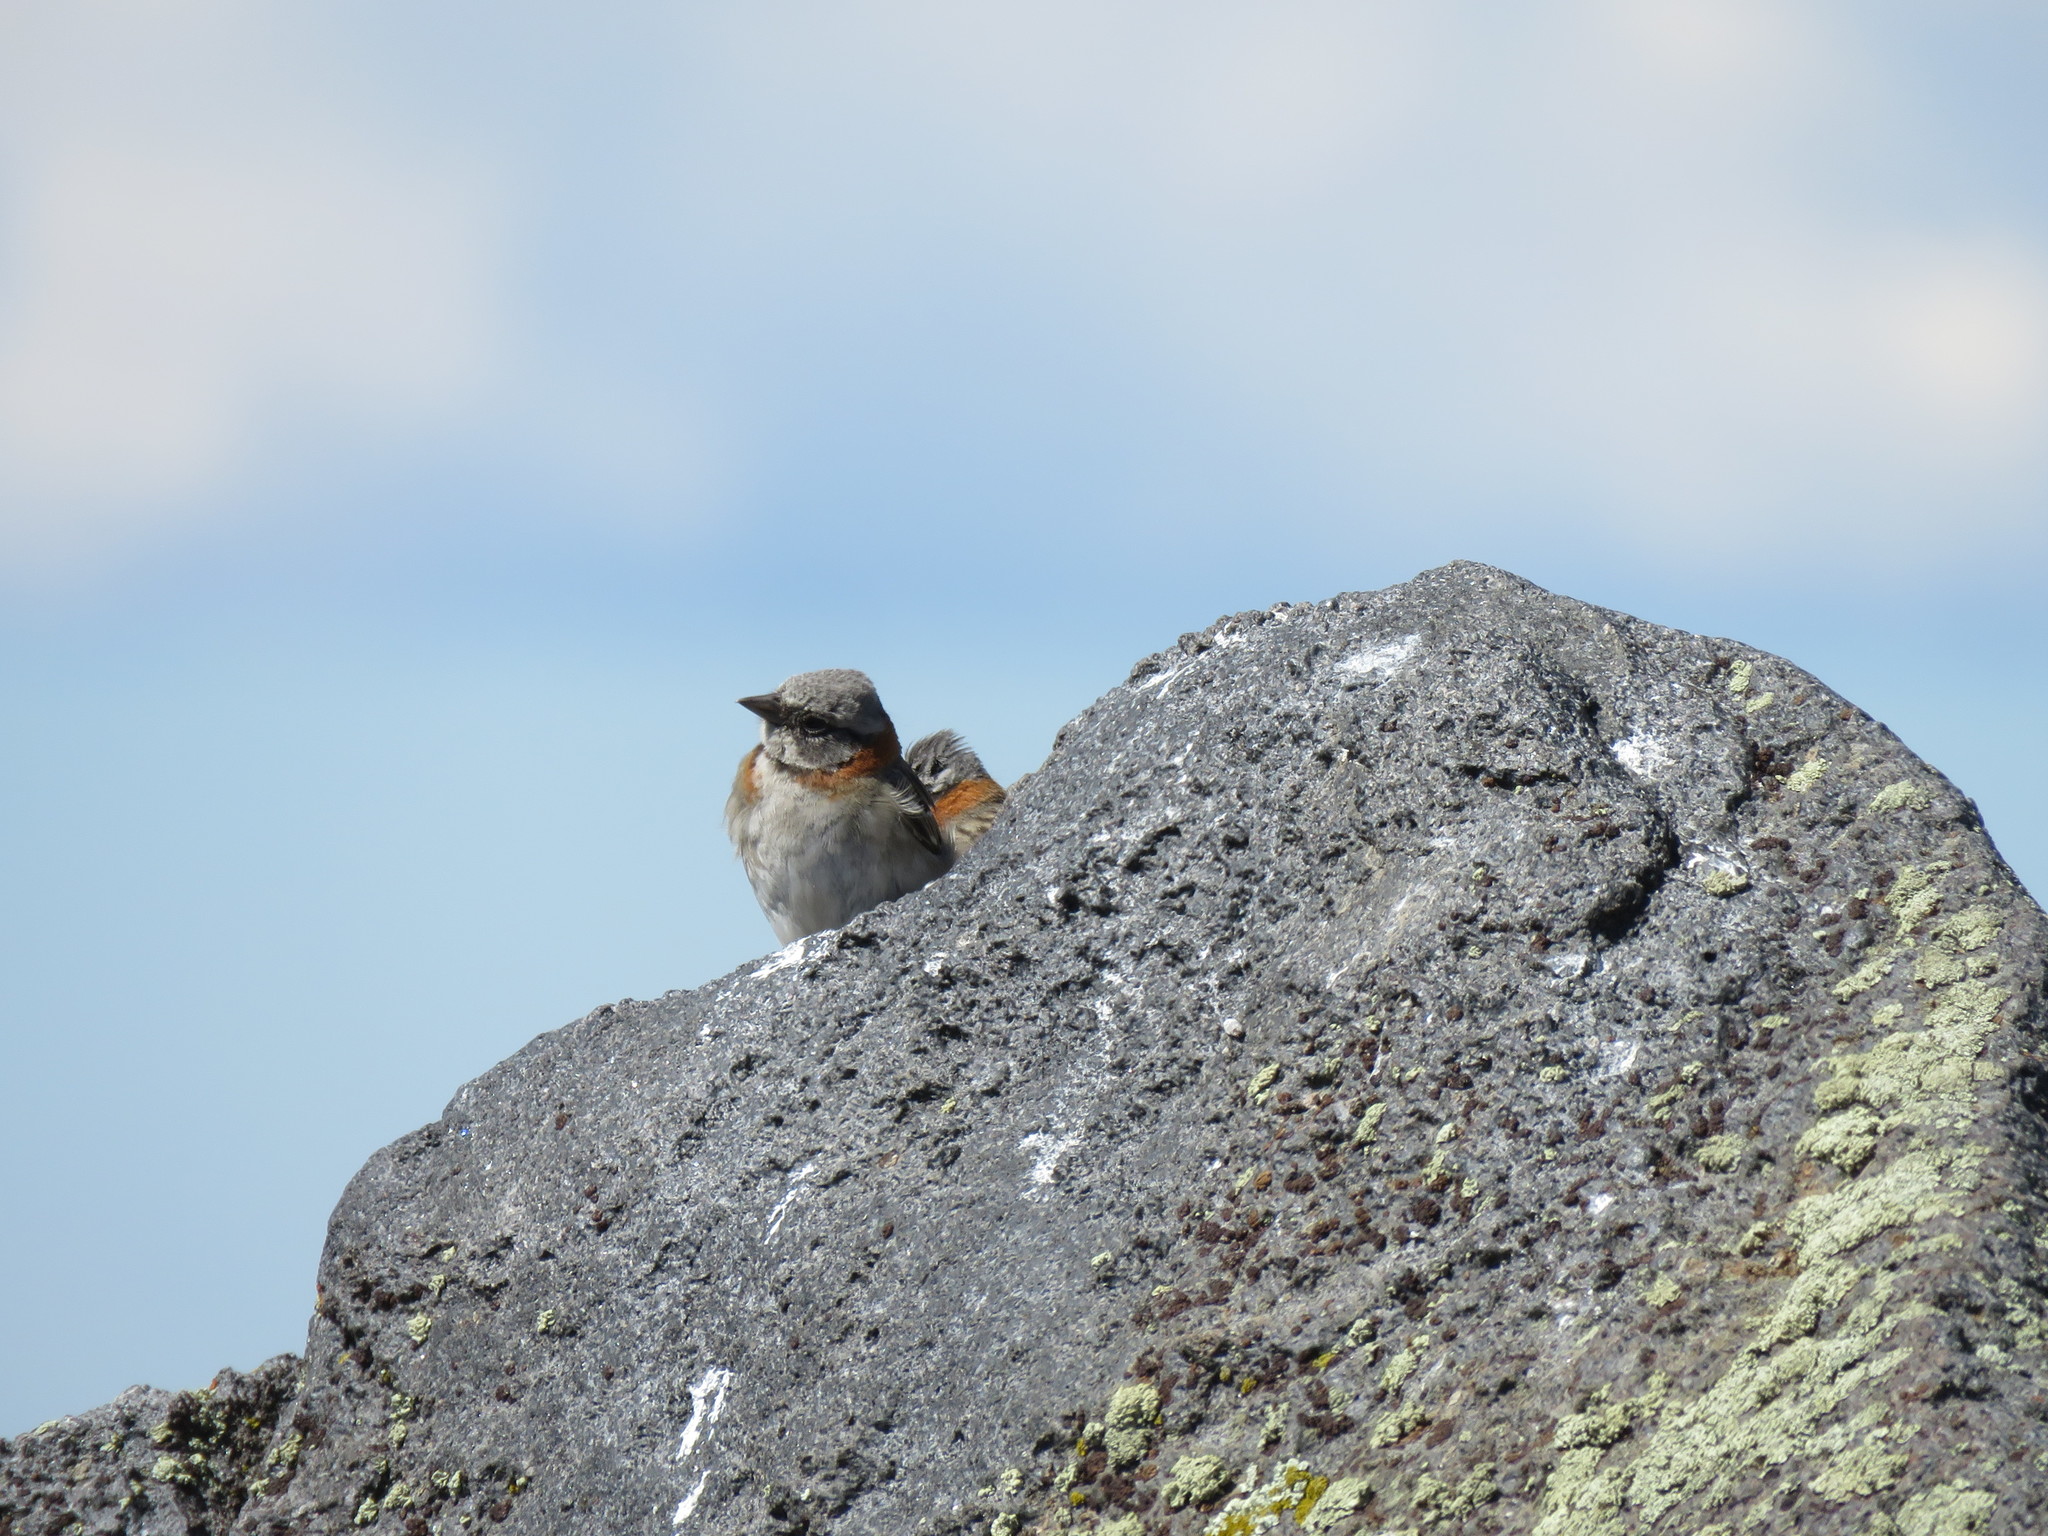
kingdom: Animalia
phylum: Chordata
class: Aves
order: Passeriformes
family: Passerellidae
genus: Zonotrichia
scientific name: Zonotrichia capensis
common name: Rufous-collared sparrow
